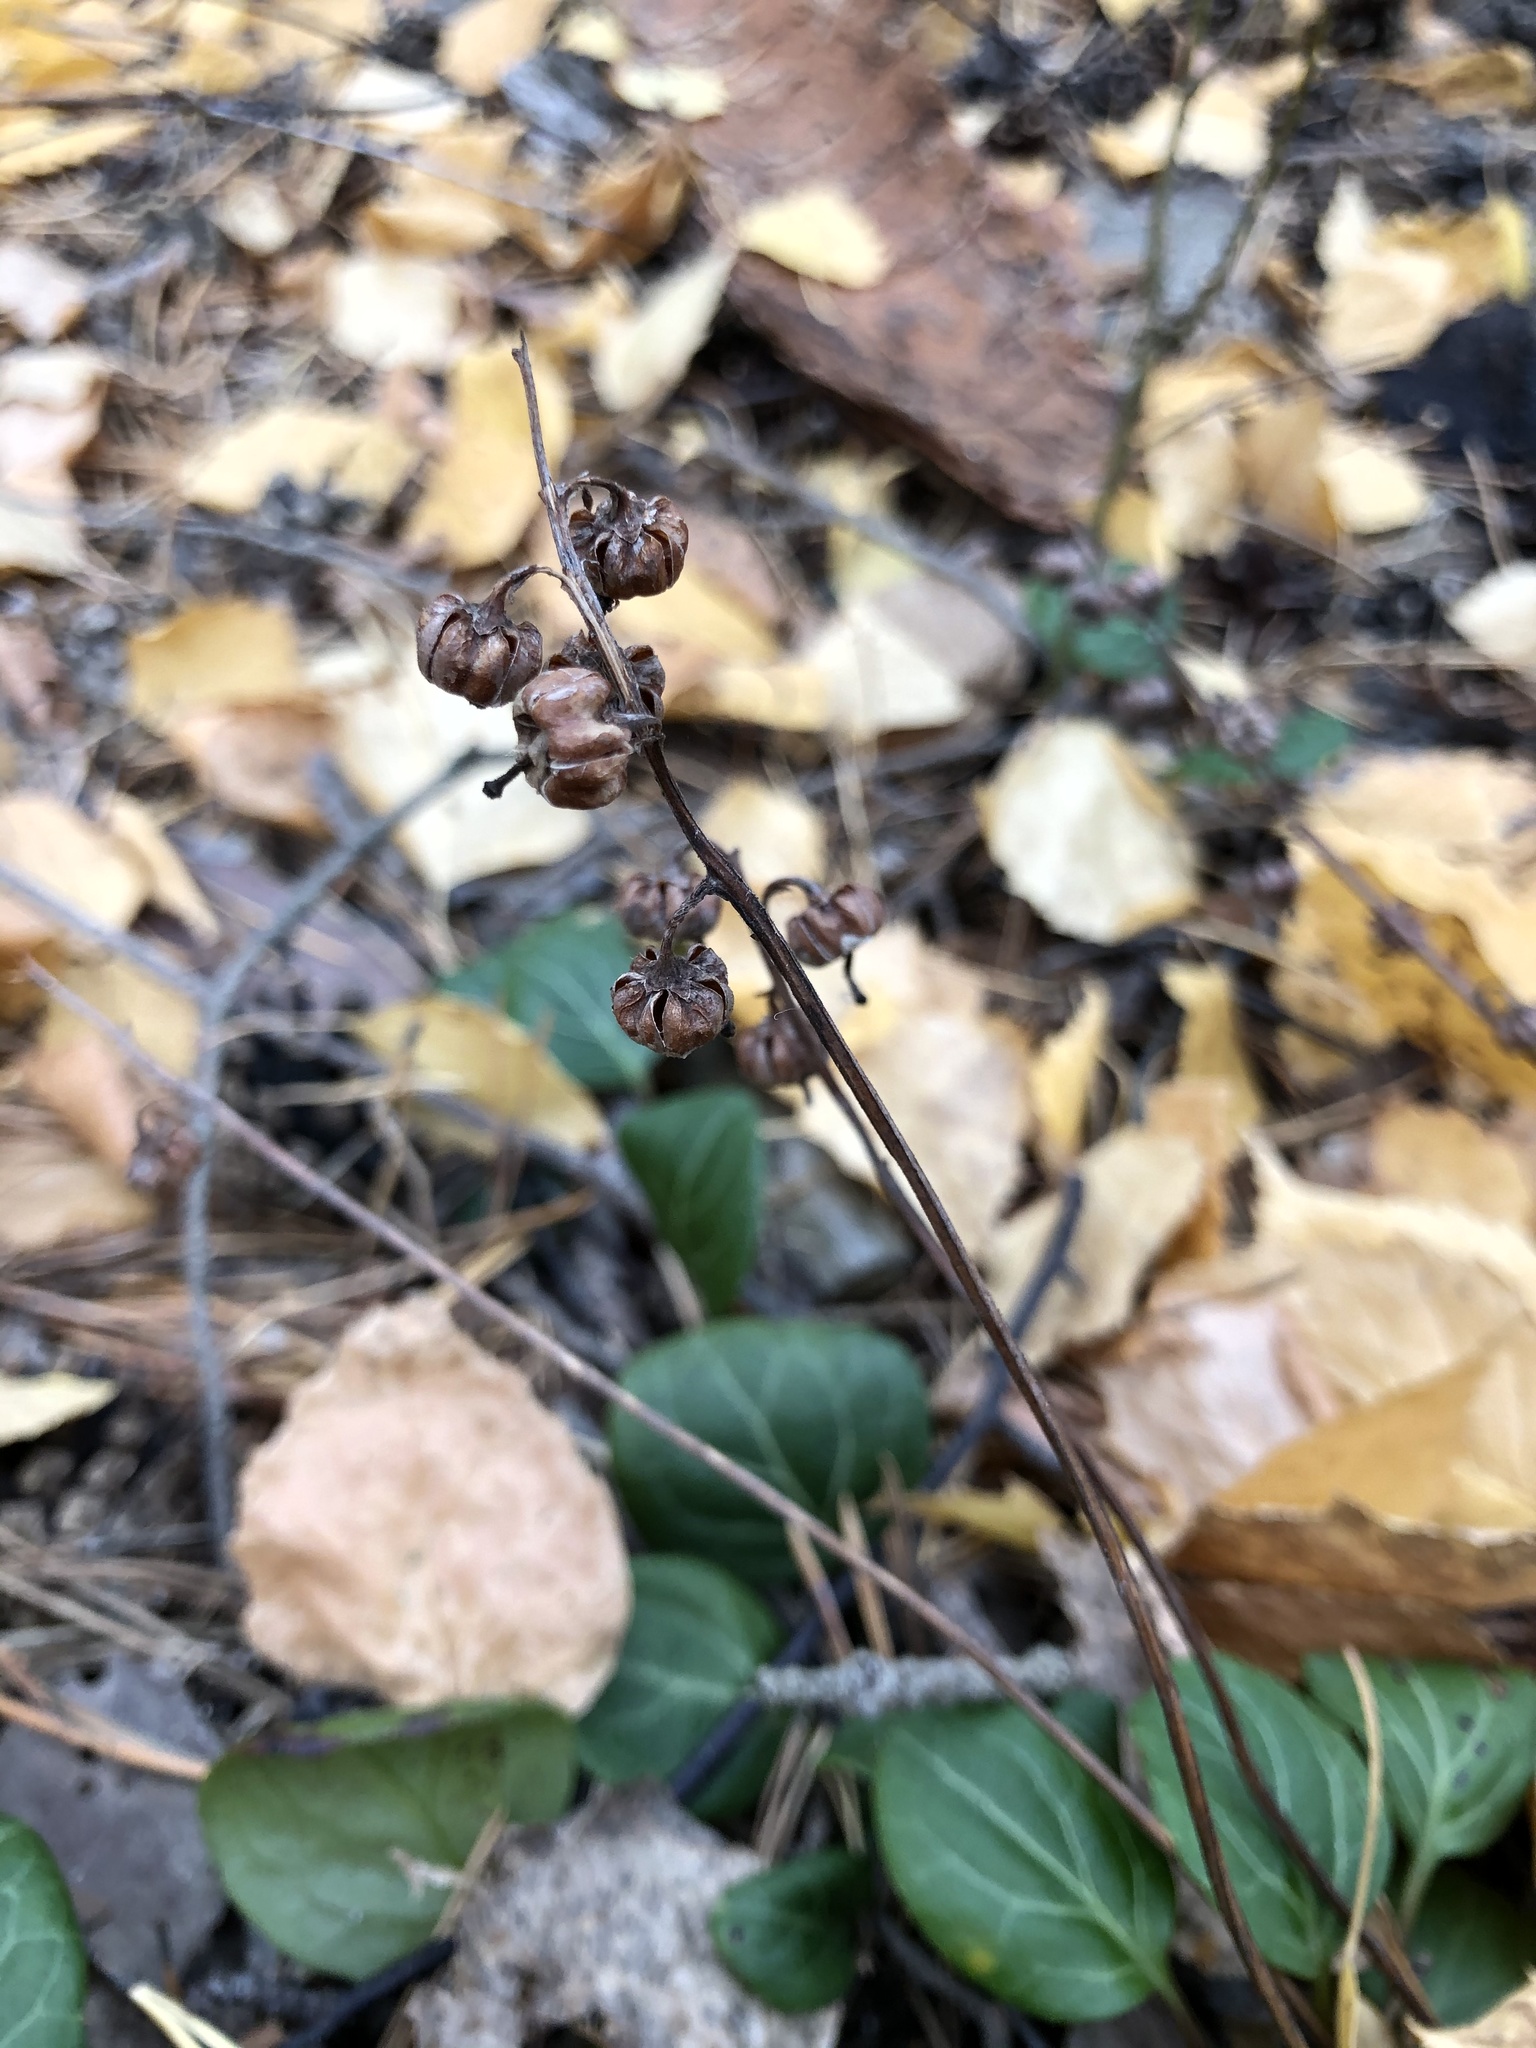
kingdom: Plantae
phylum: Tracheophyta
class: Magnoliopsida
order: Ericales
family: Ericaceae
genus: Pyrola
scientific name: Pyrola chlorantha
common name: Green wintergreen
